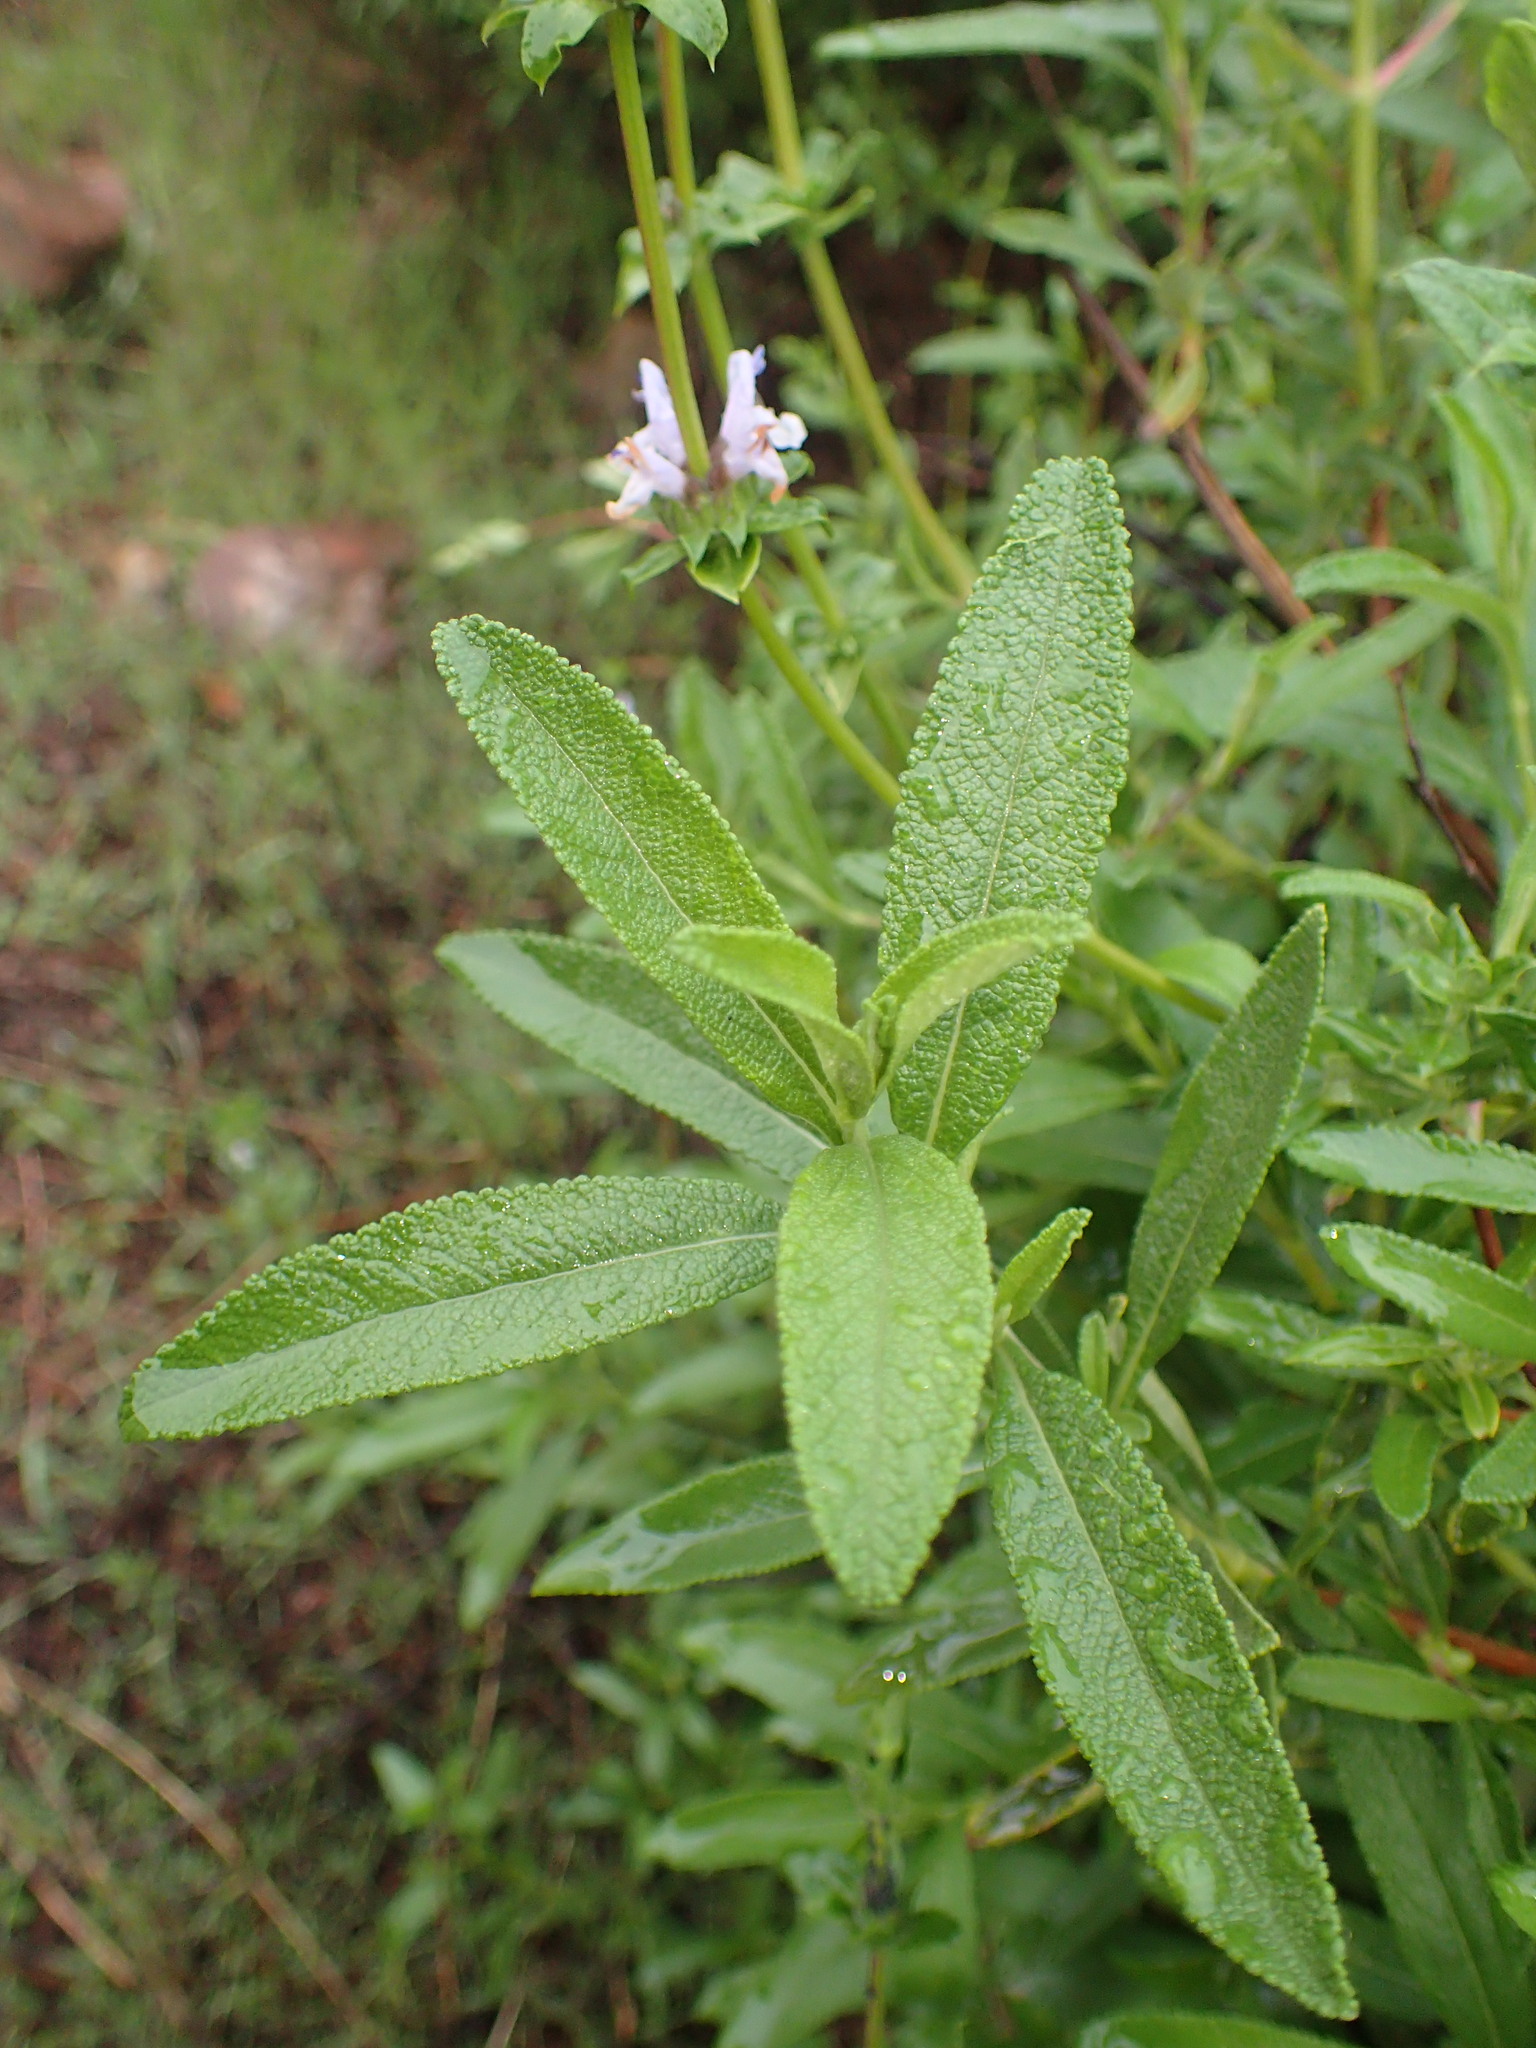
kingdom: Plantae
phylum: Tracheophyta
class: Magnoliopsida
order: Lamiales
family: Lamiaceae
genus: Salvia
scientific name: Salvia mellifera
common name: Black sage
